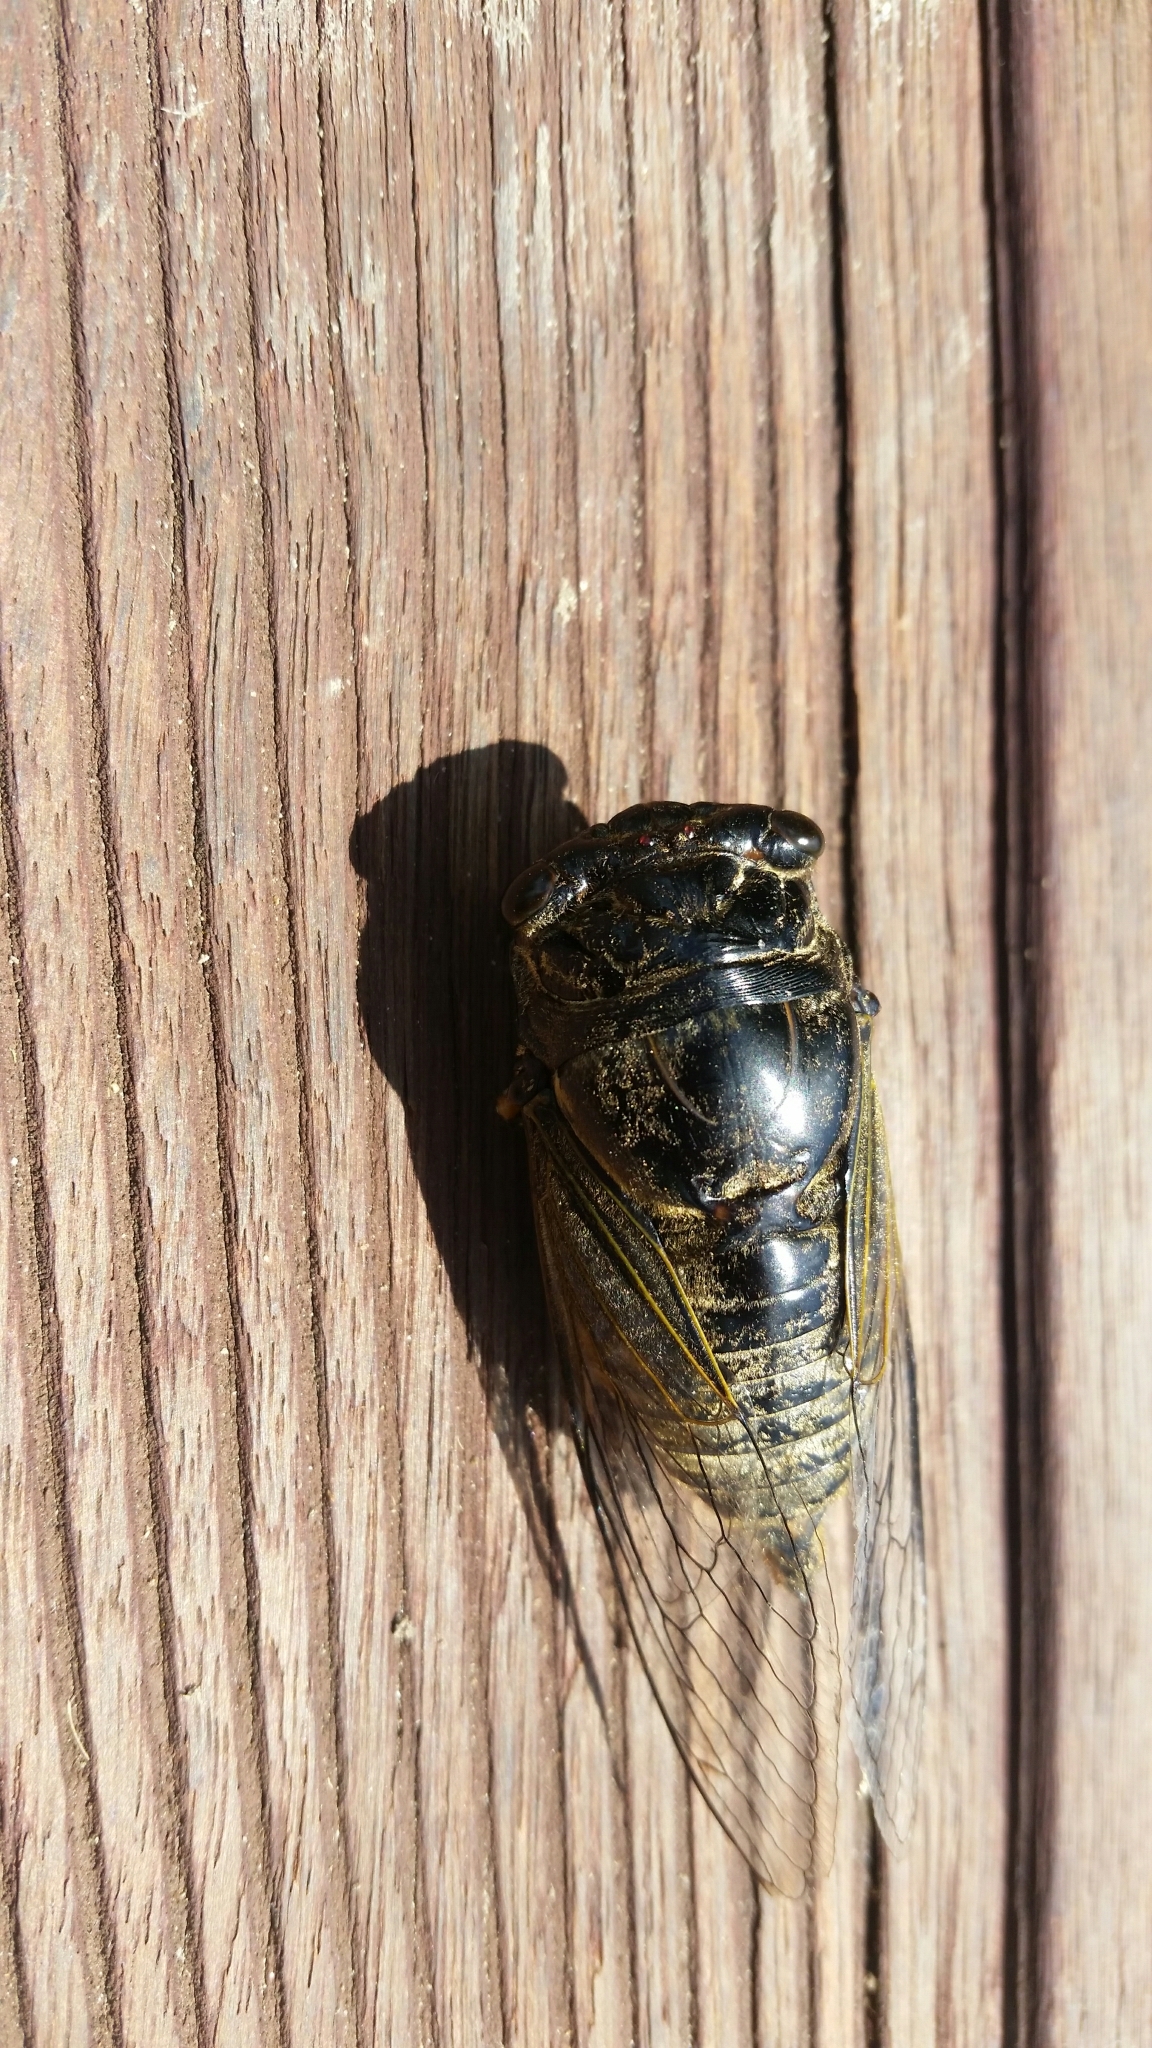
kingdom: Animalia
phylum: Arthropoda
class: Insecta
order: Hemiptera
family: Cicadidae
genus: Cryptotympana
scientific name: Cryptotympana atrata
